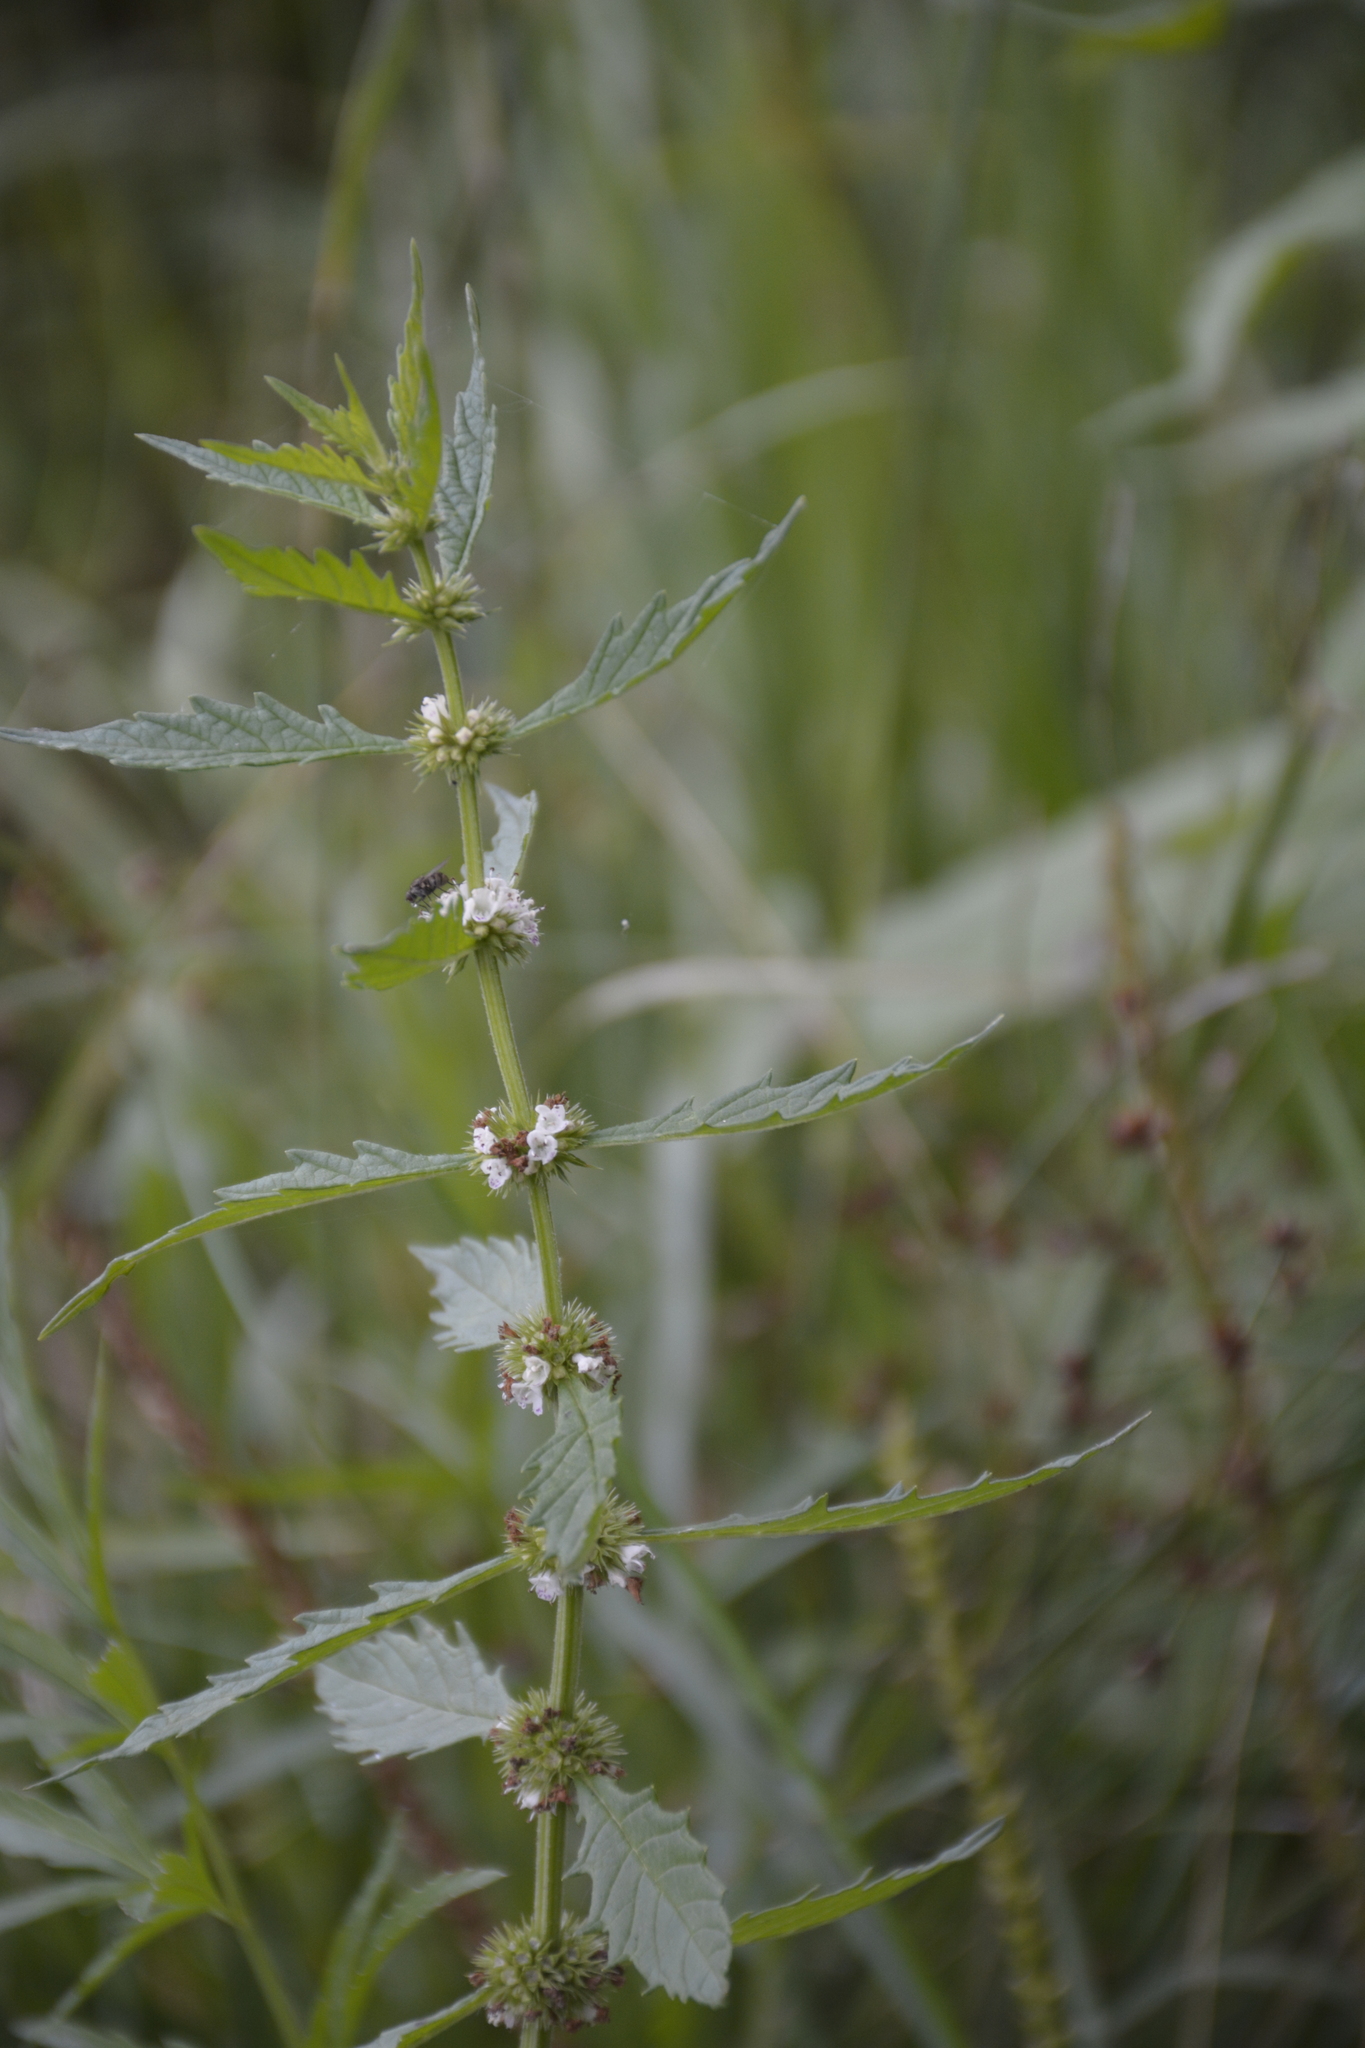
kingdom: Plantae
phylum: Tracheophyta
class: Magnoliopsida
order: Lamiales
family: Lamiaceae
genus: Lycopus
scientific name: Lycopus europaeus
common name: European bugleweed
